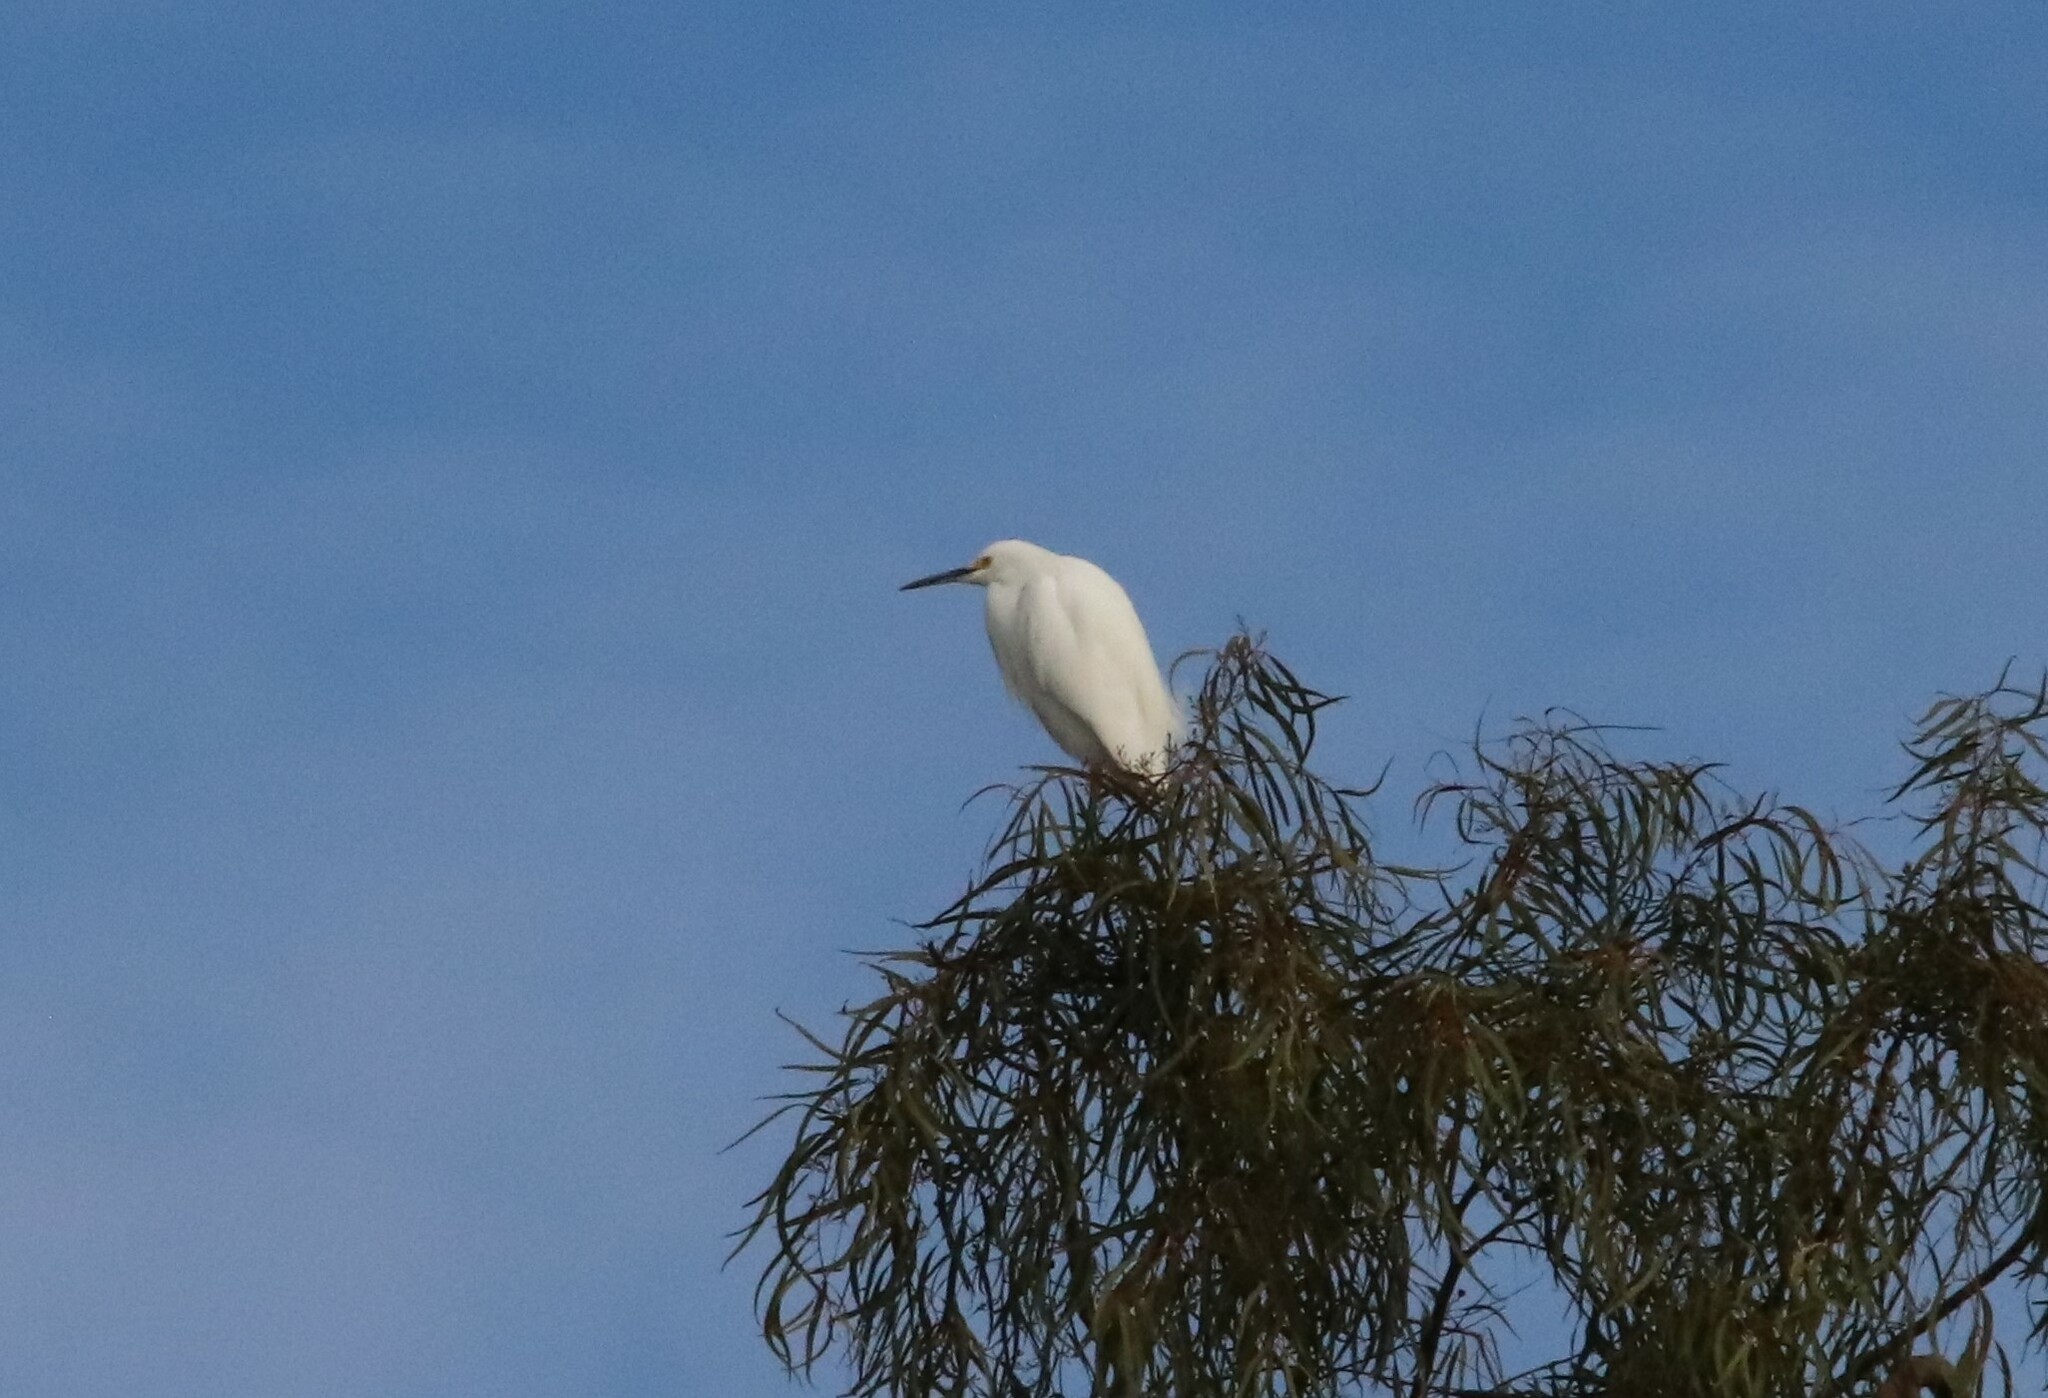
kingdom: Animalia
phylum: Chordata
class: Aves
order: Pelecaniformes
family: Ardeidae
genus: Egretta
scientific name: Egretta thula
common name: Snowy egret
